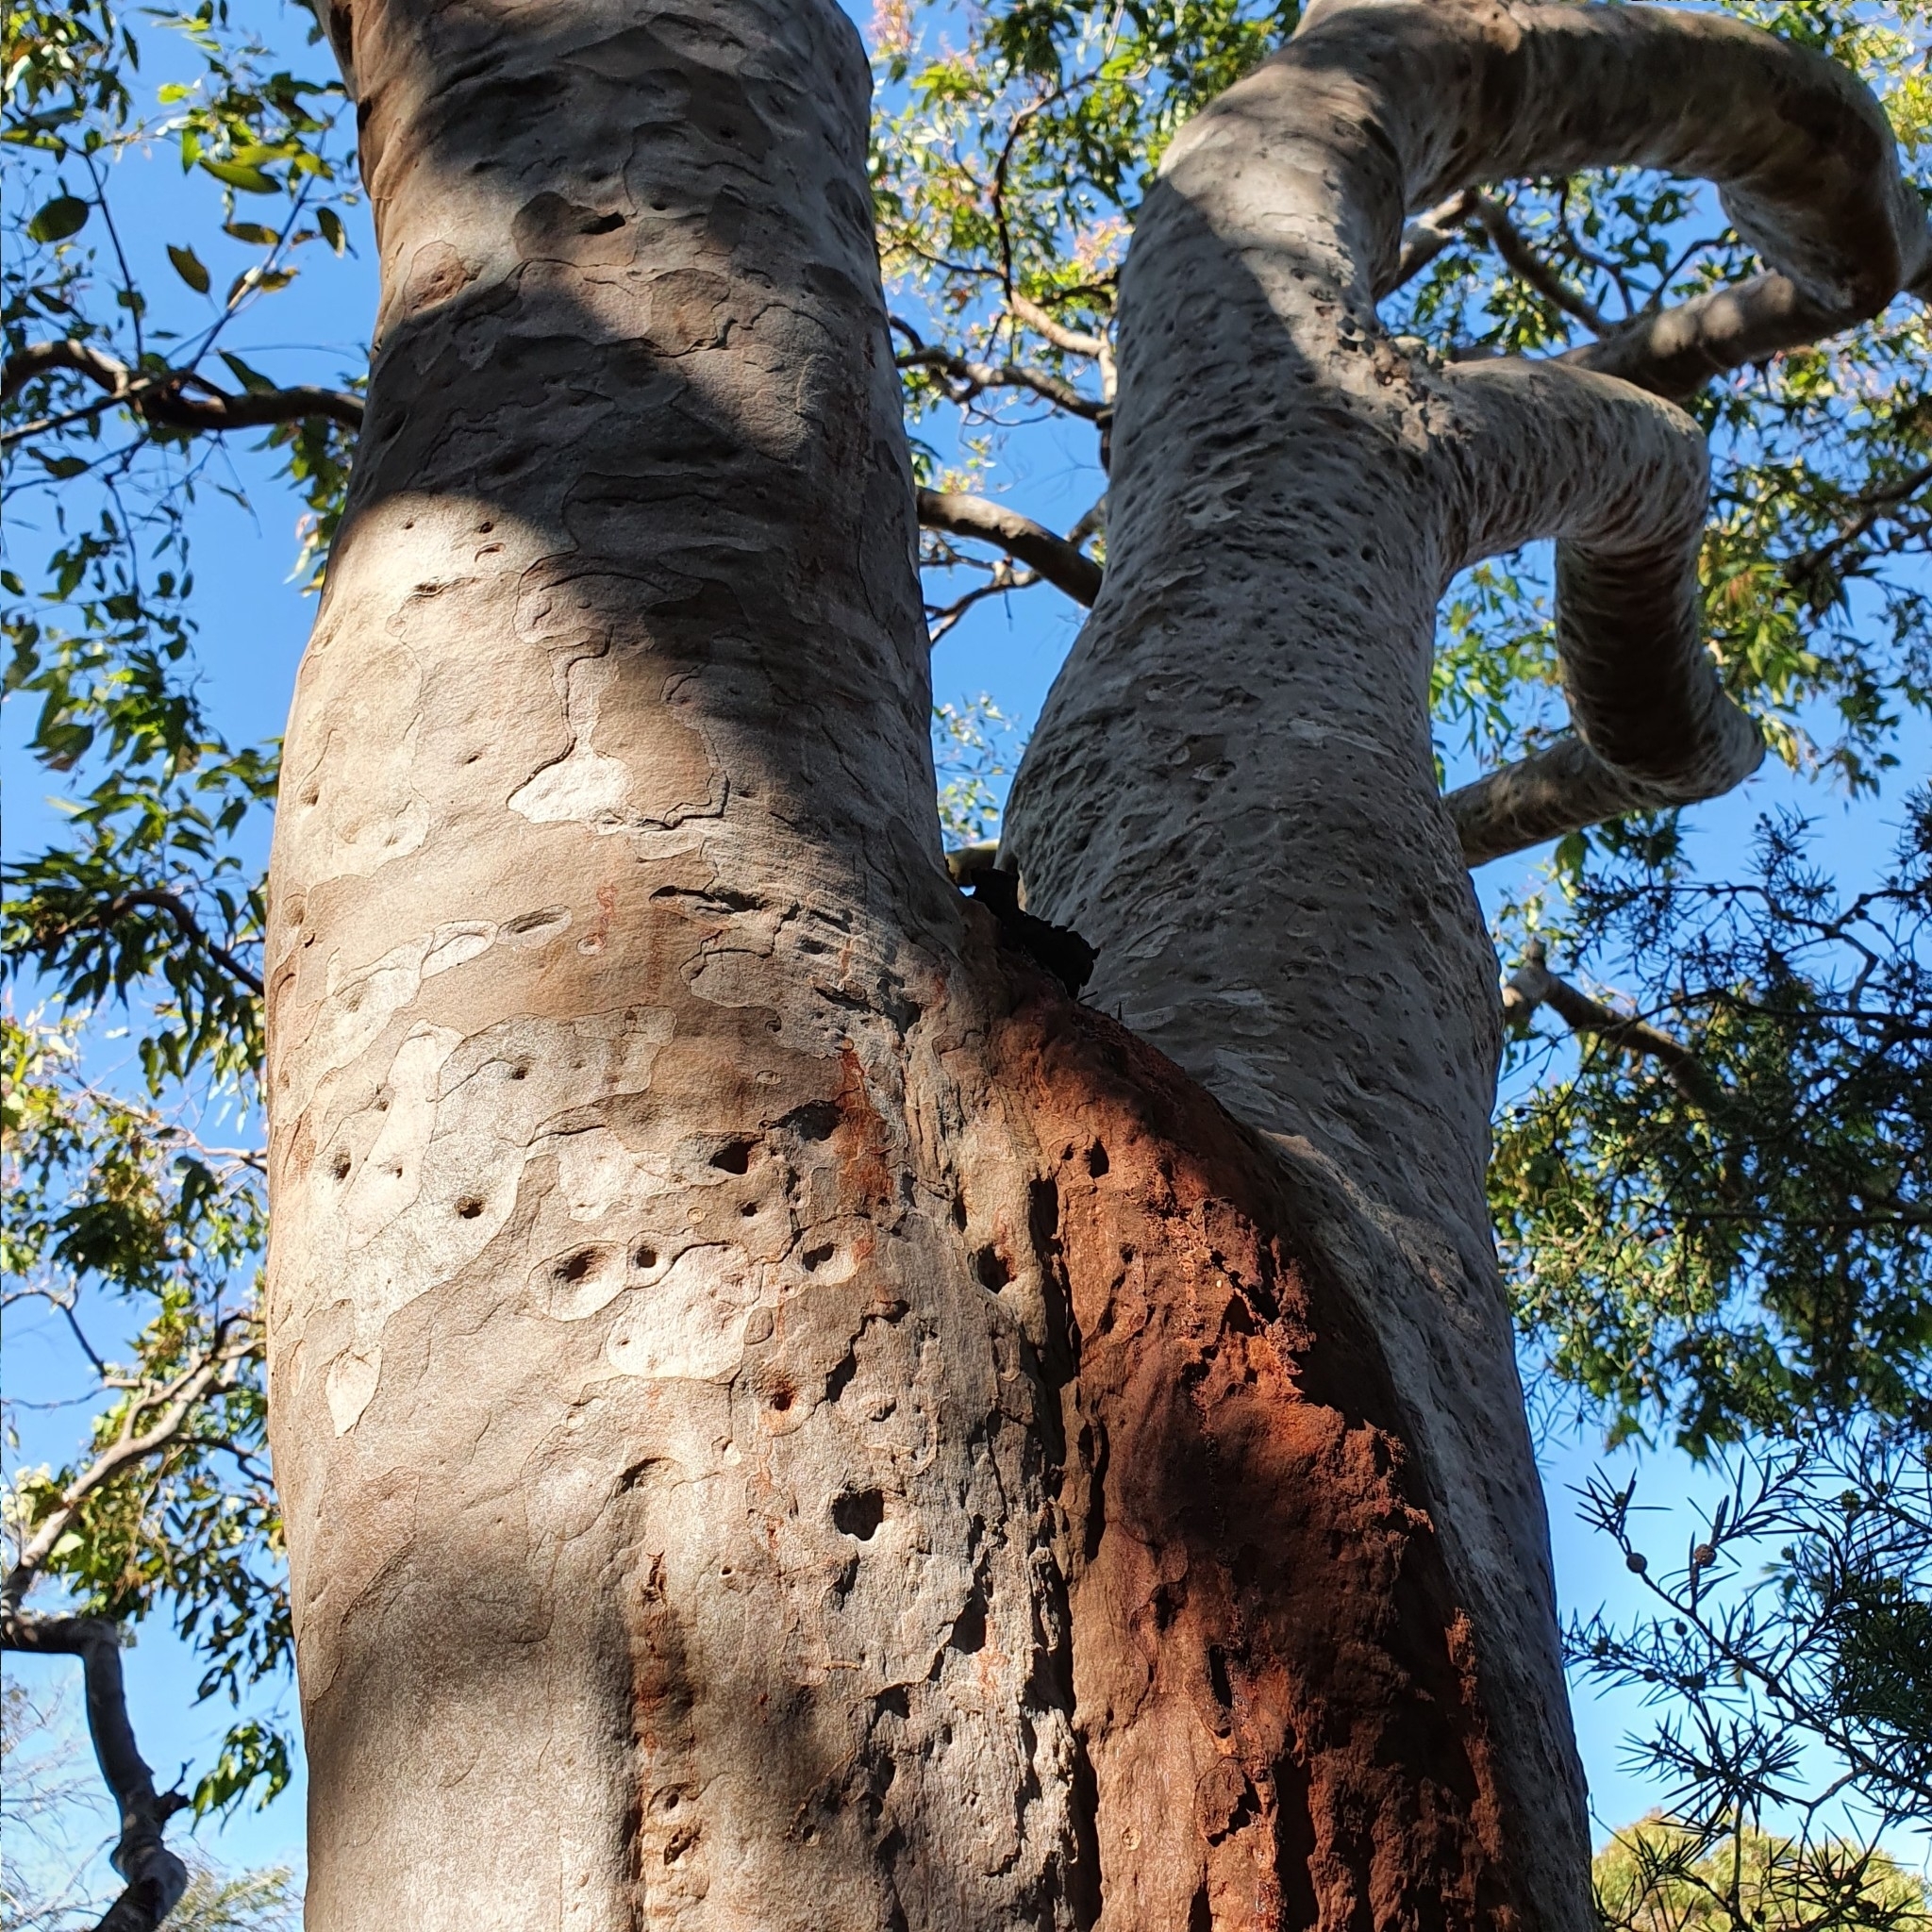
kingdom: Plantae
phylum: Tracheophyta
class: Magnoliopsida
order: Myrtales
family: Myrtaceae
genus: Angophora
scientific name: Angophora costata
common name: Gum myrtle
